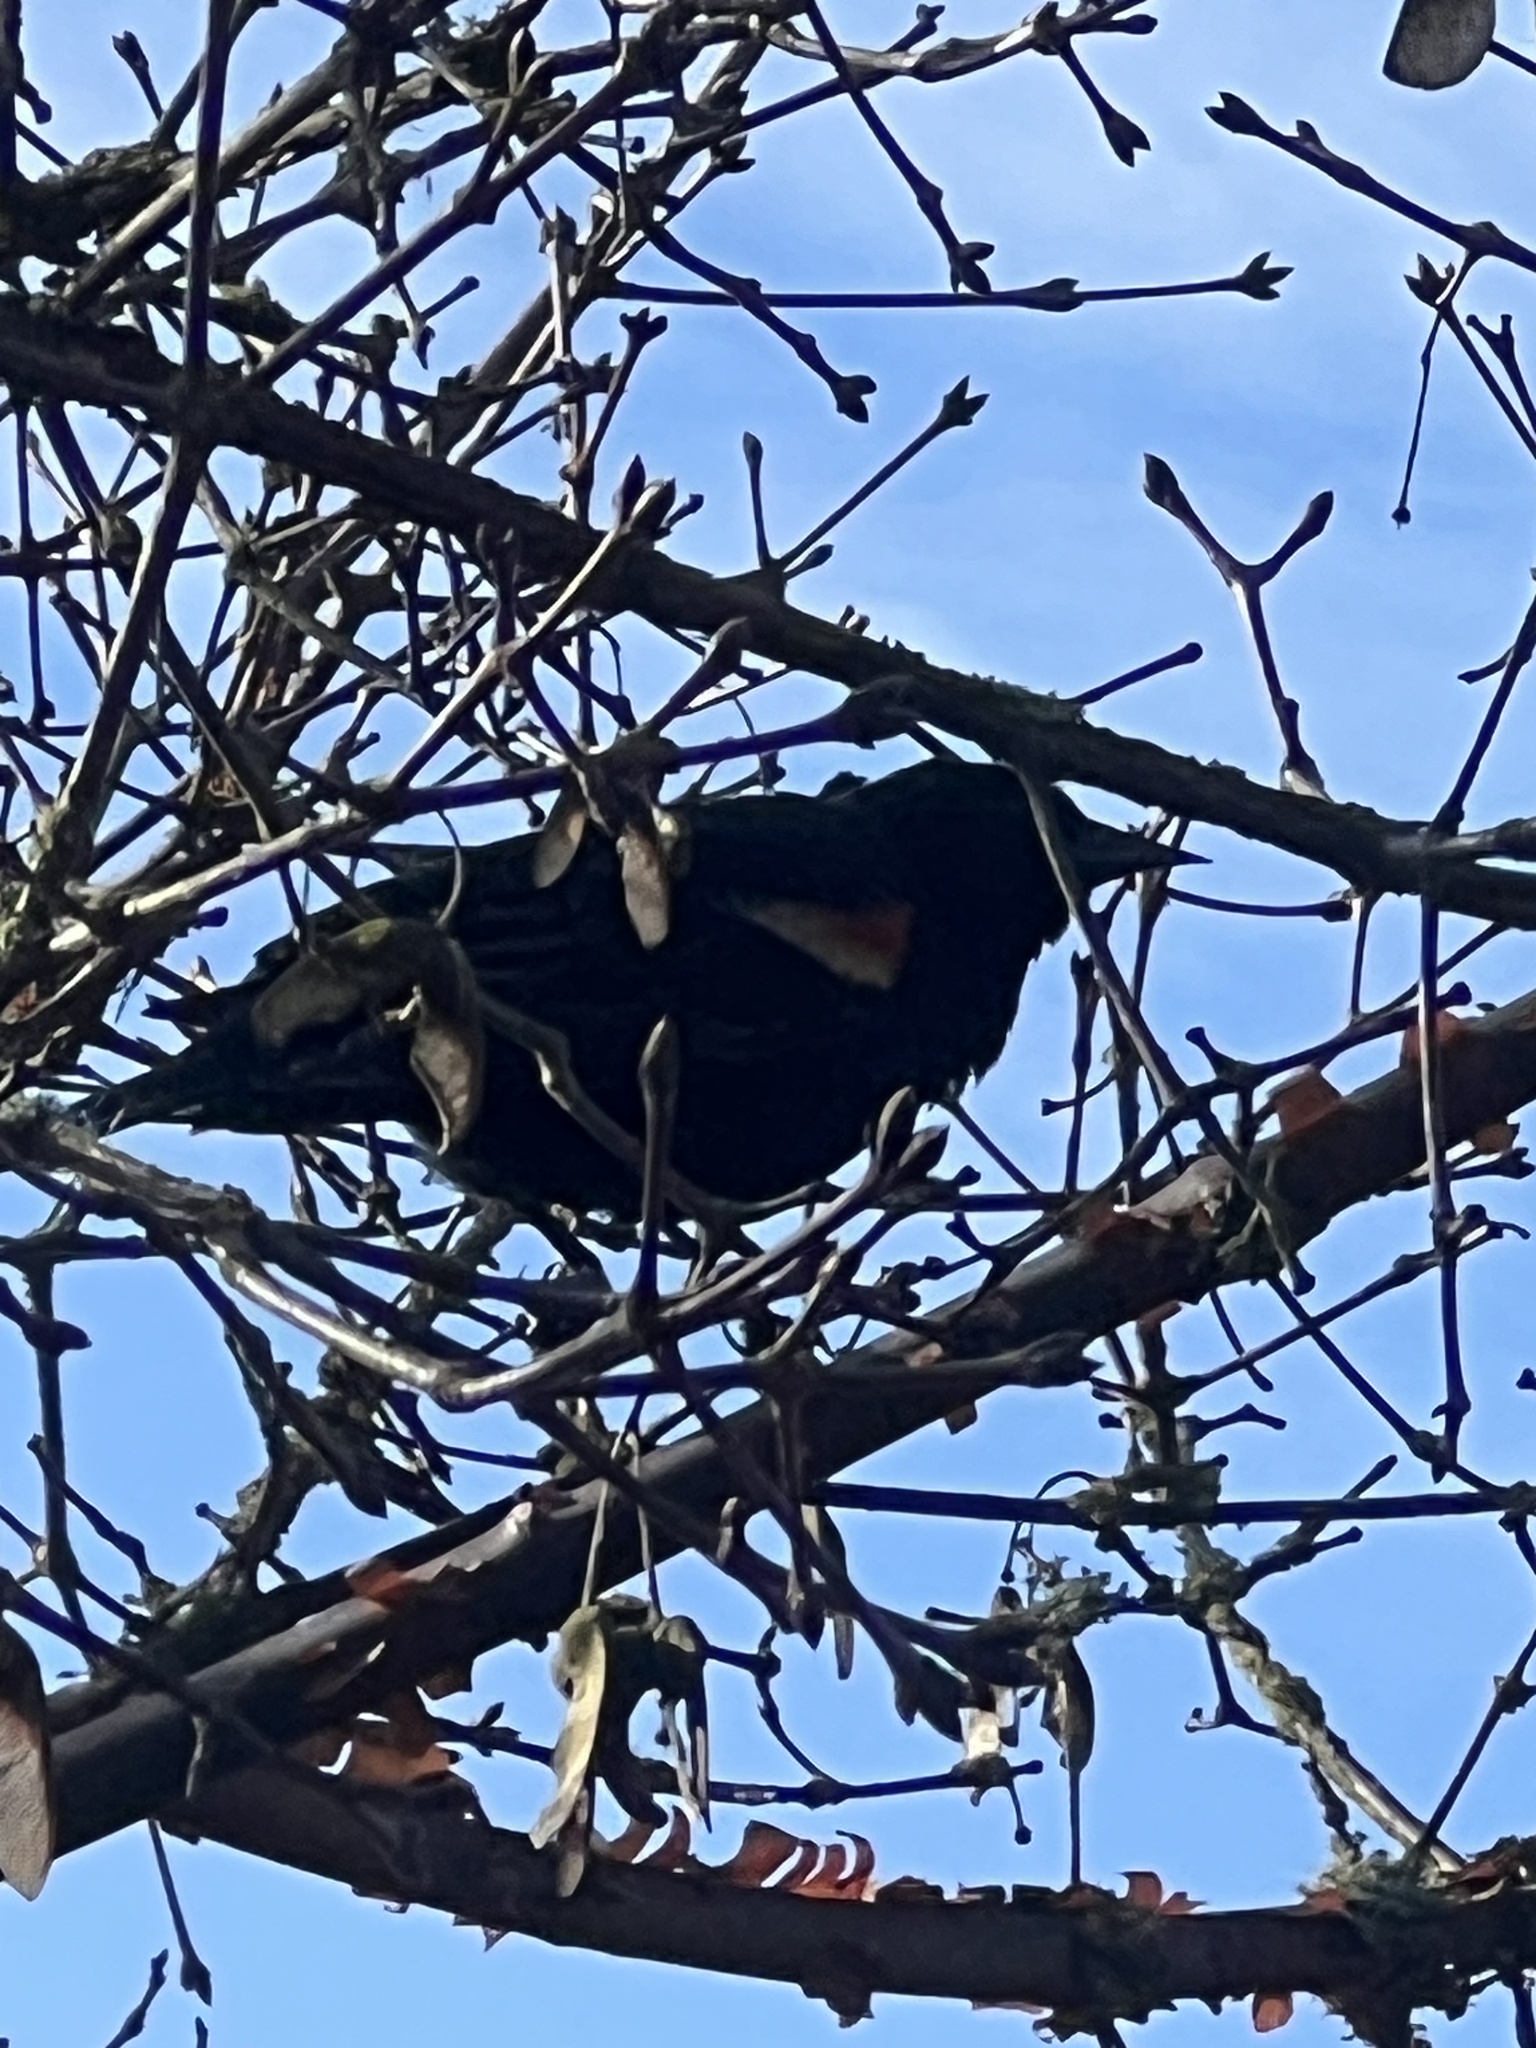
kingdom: Animalia
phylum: Chordata
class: Aves
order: Passeriformes
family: Icteridae
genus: Agelaius
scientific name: Agelaius phoeniceus
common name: Red-winged blackbird
